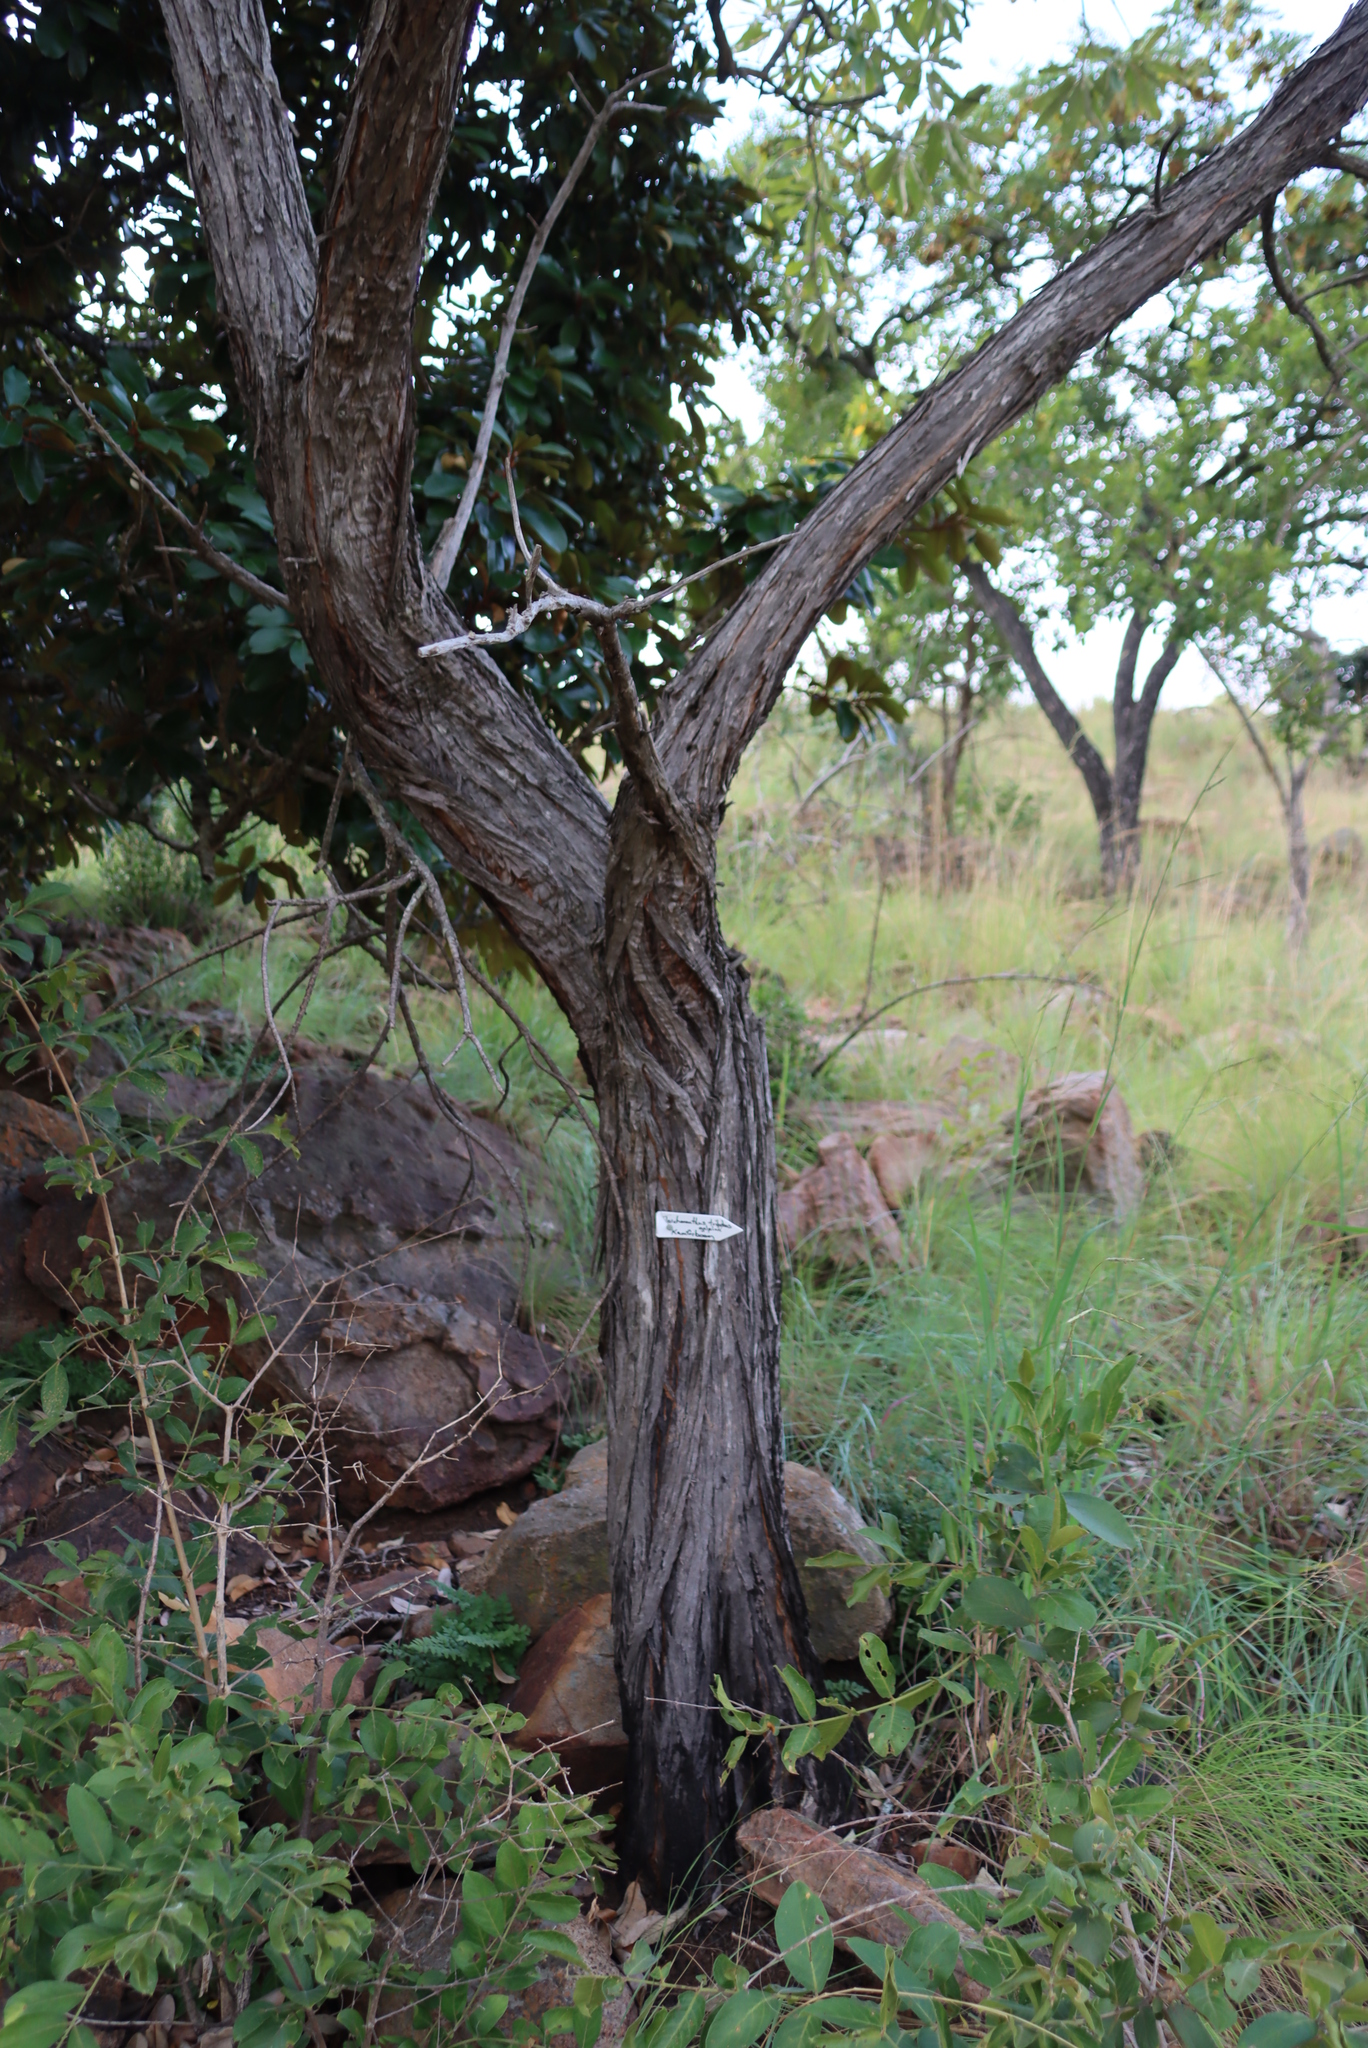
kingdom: Plantae
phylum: Tracheophyta
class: Magnoliopsida
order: Asterales
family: Asteraceae
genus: Tarchonanthus
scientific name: Tarchonanthus trilobus
